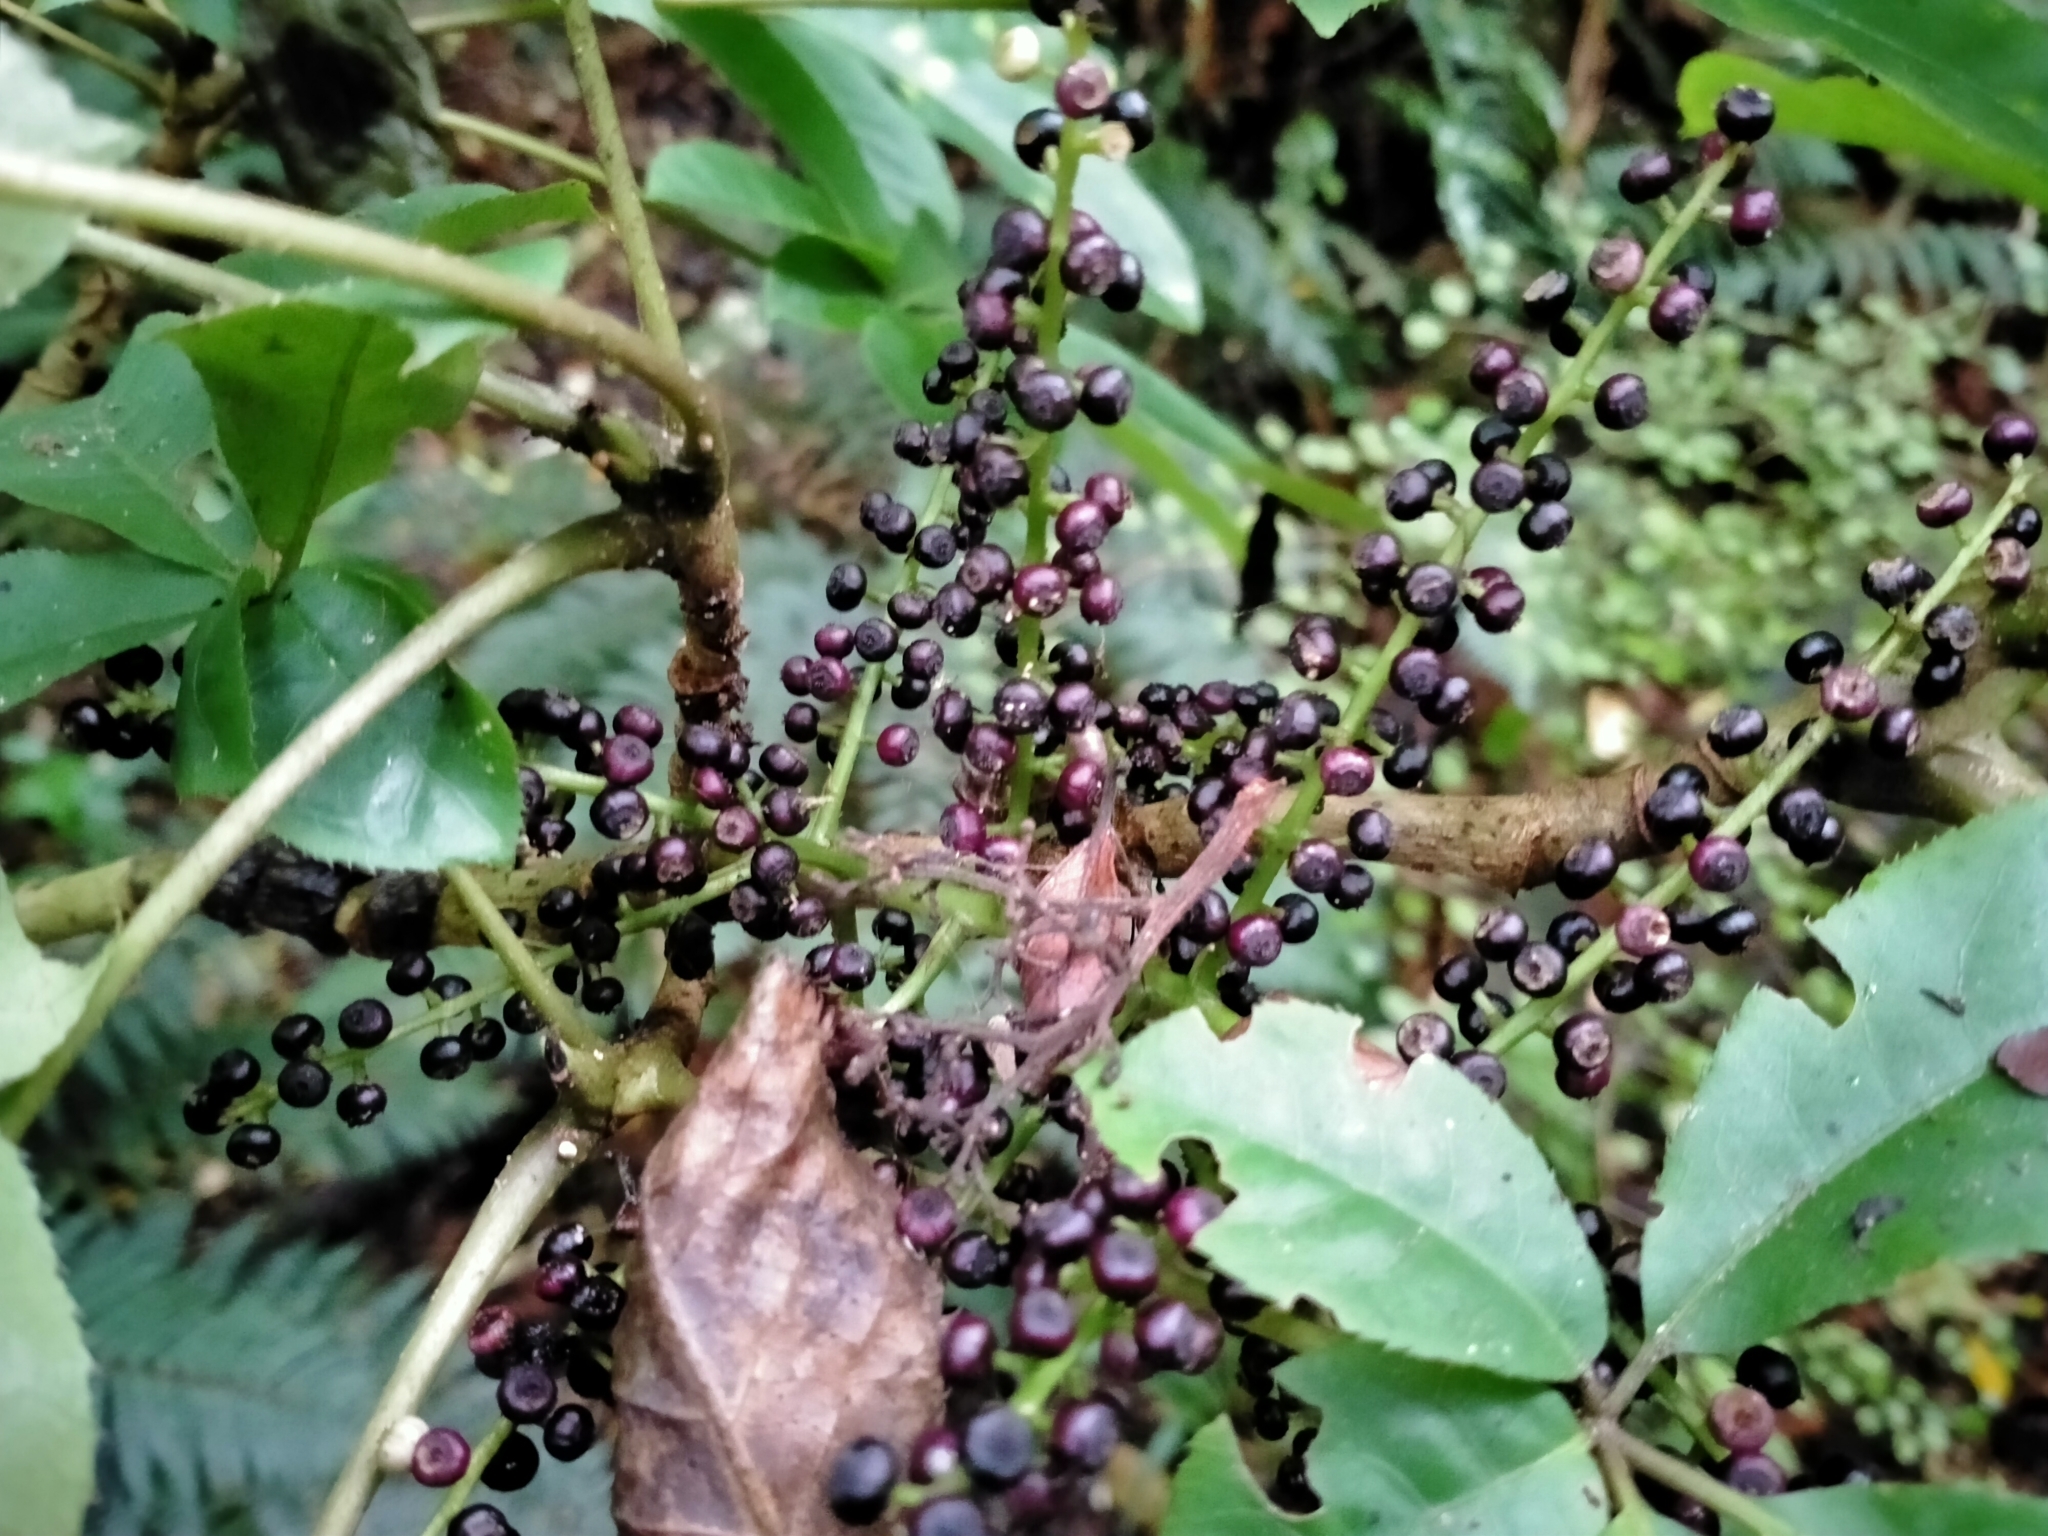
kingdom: Plantae
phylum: Tracheophyta
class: Magnoliopsida
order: Apiales
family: Araliaceae
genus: Schefflera
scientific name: Schefflera digitata
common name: Pate
